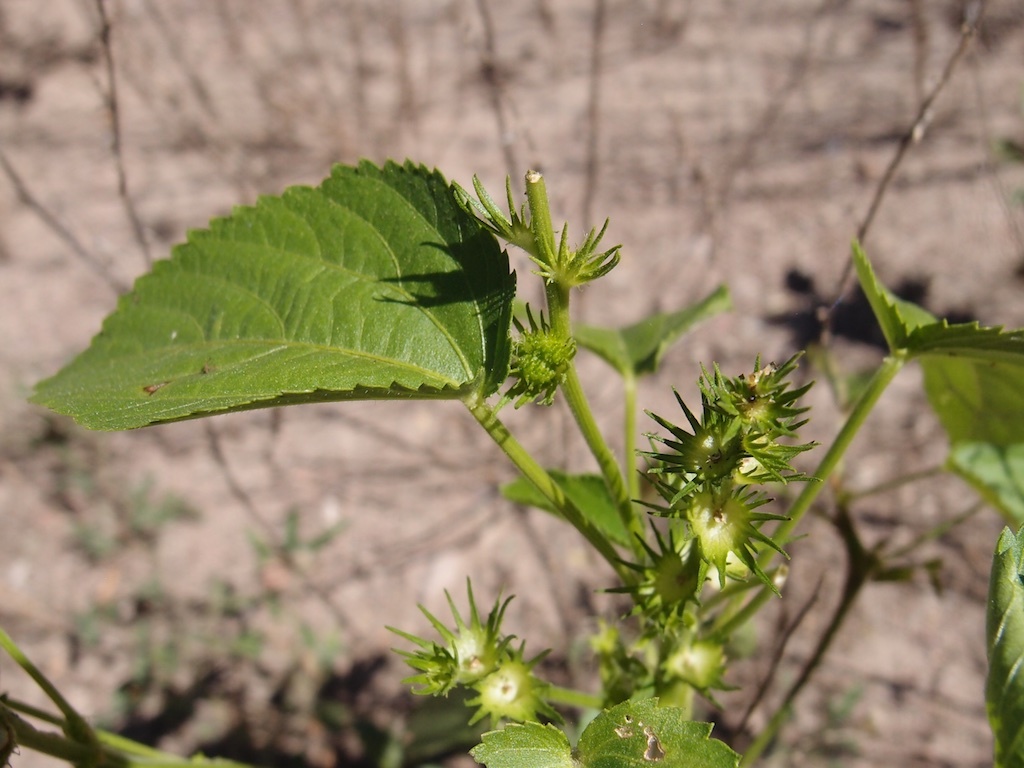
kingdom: Plantae
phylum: Tracheophyta
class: Magnoliopsida
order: Malpighiales
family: Euphorbiaceae
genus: Acalypha
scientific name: Acalypha ostryifolia
